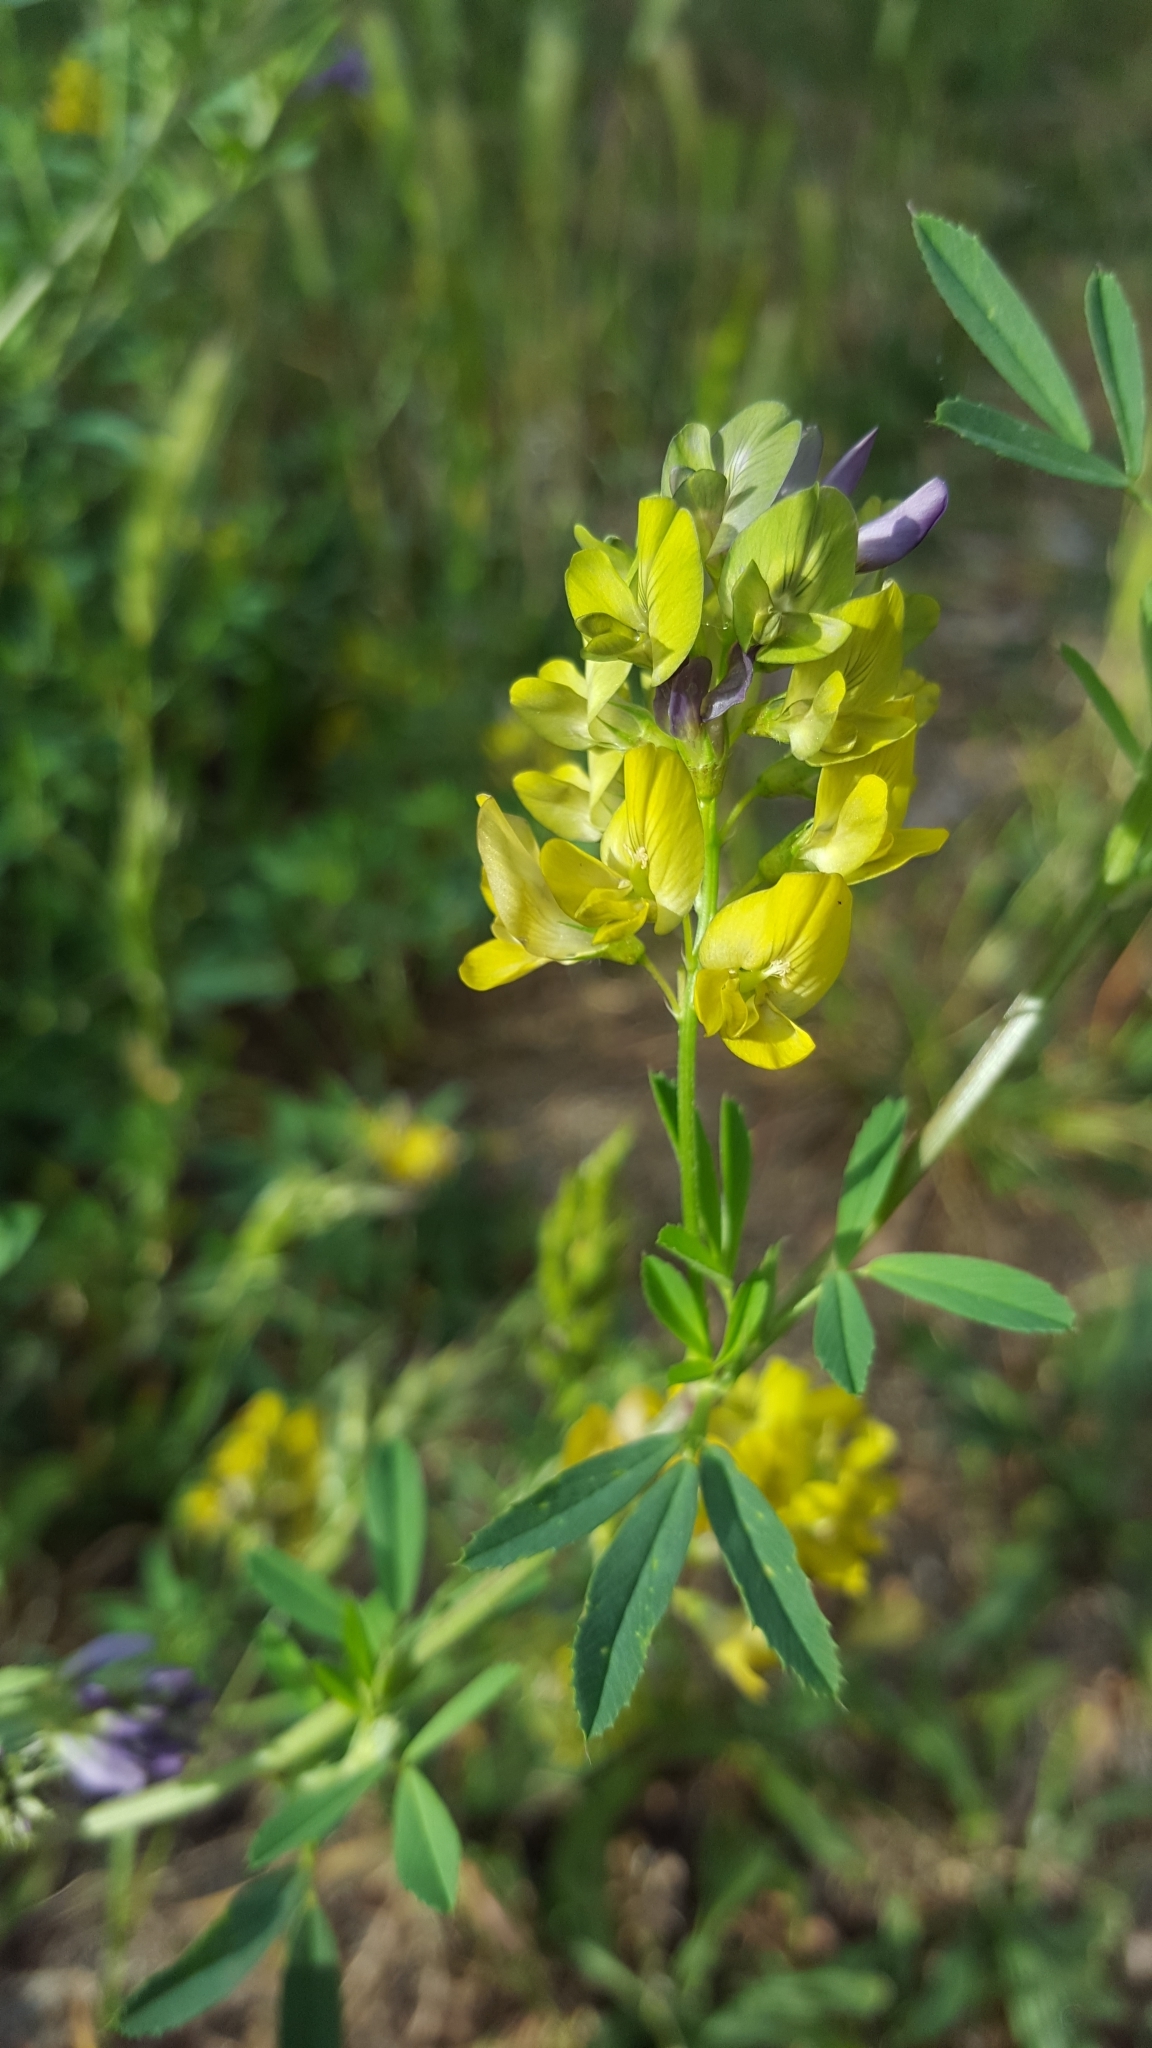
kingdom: Plantae
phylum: Tracheophyta
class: Magnoliopsida
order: Fabales
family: Fabaceae
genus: Medicago
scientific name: Medicago varia
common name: Sand lucerne
